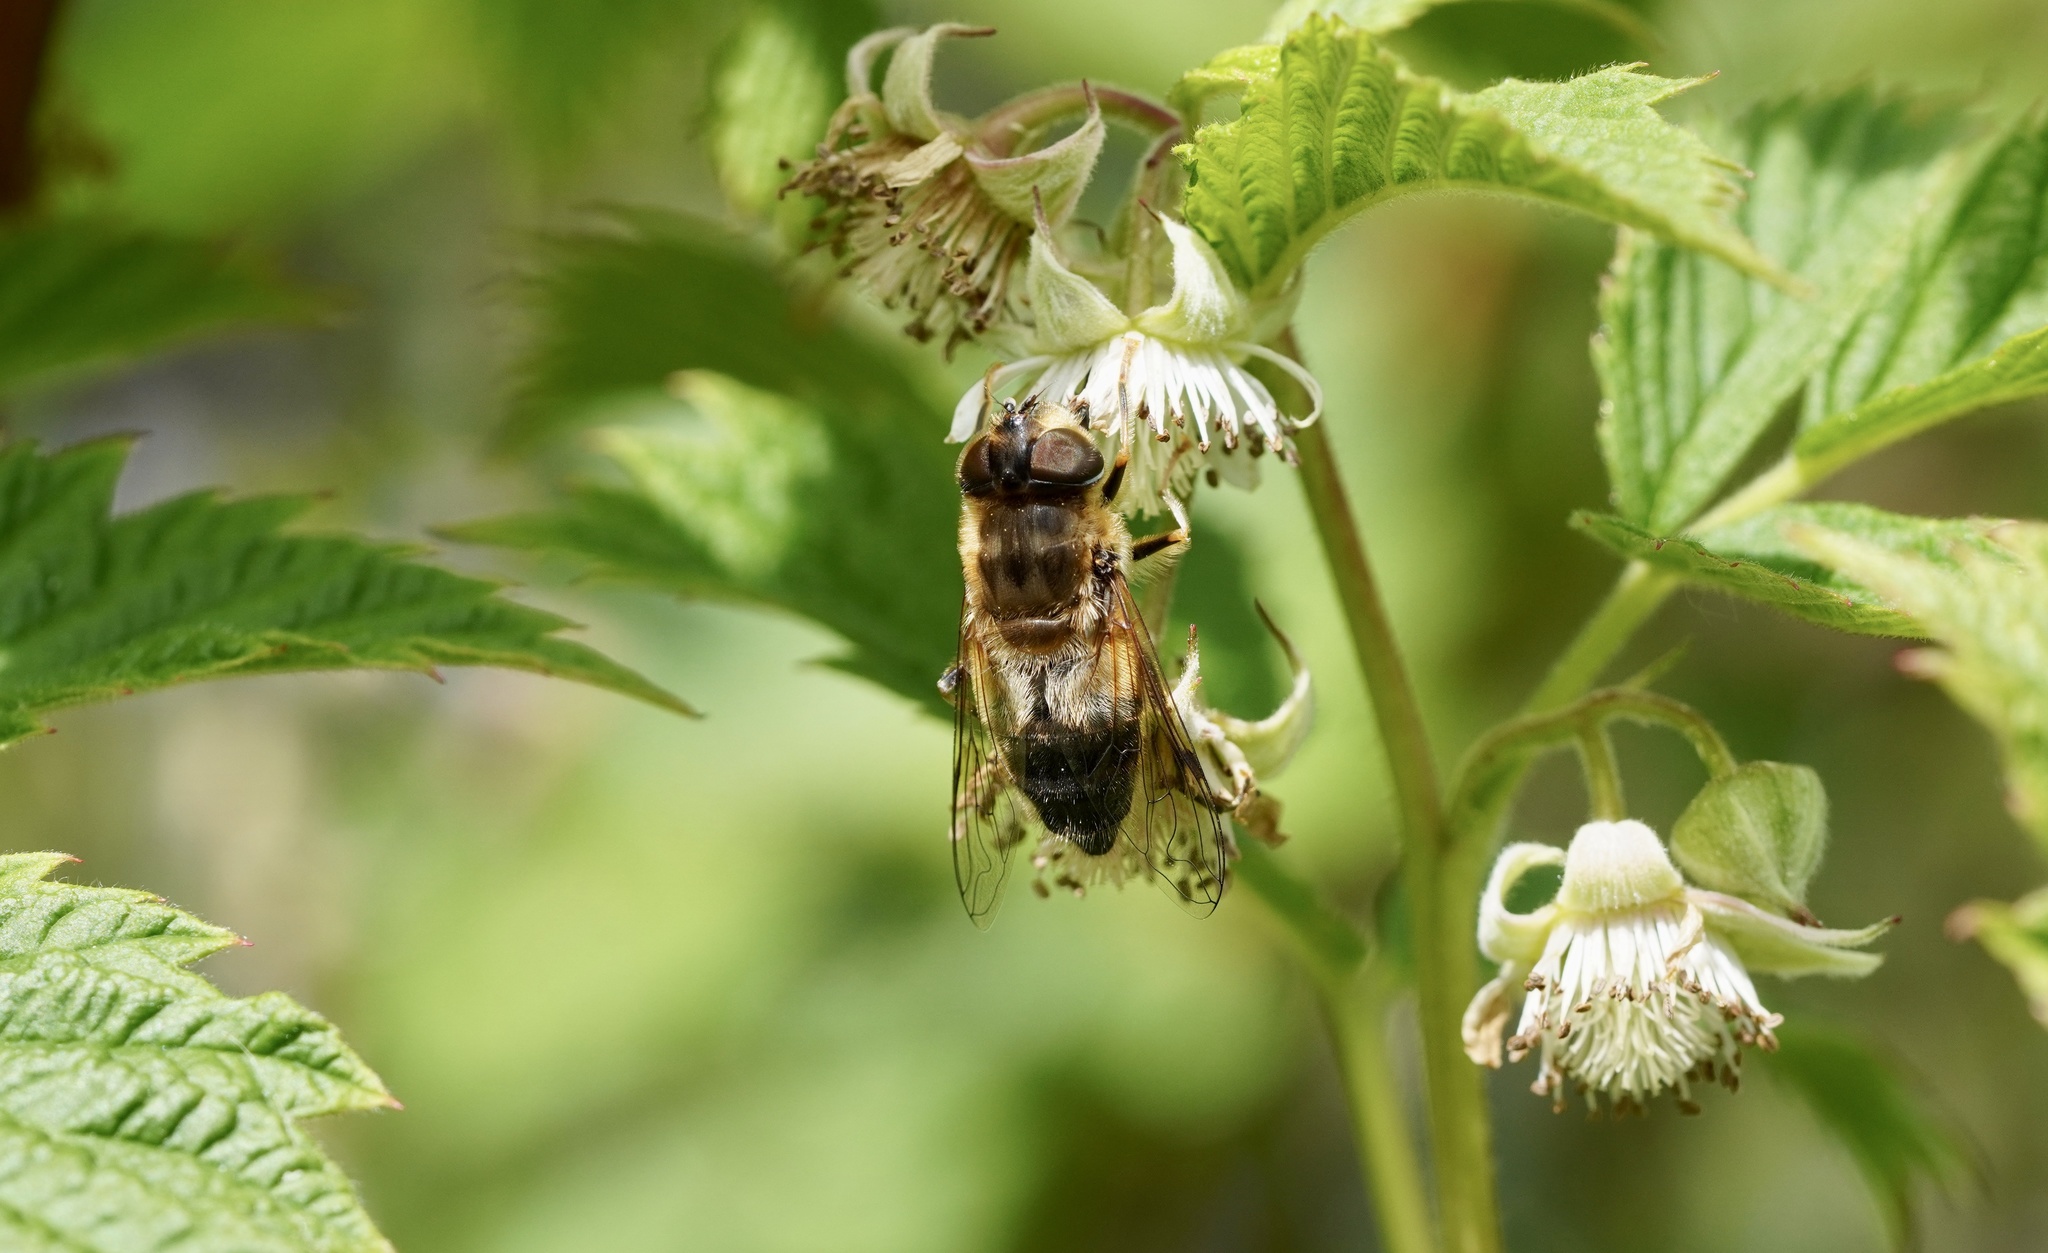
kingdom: Animalia
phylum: Arthropoda
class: Insecta
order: Diptera
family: Syrphidae
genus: Eristalis
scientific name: Eristalis pertinax
